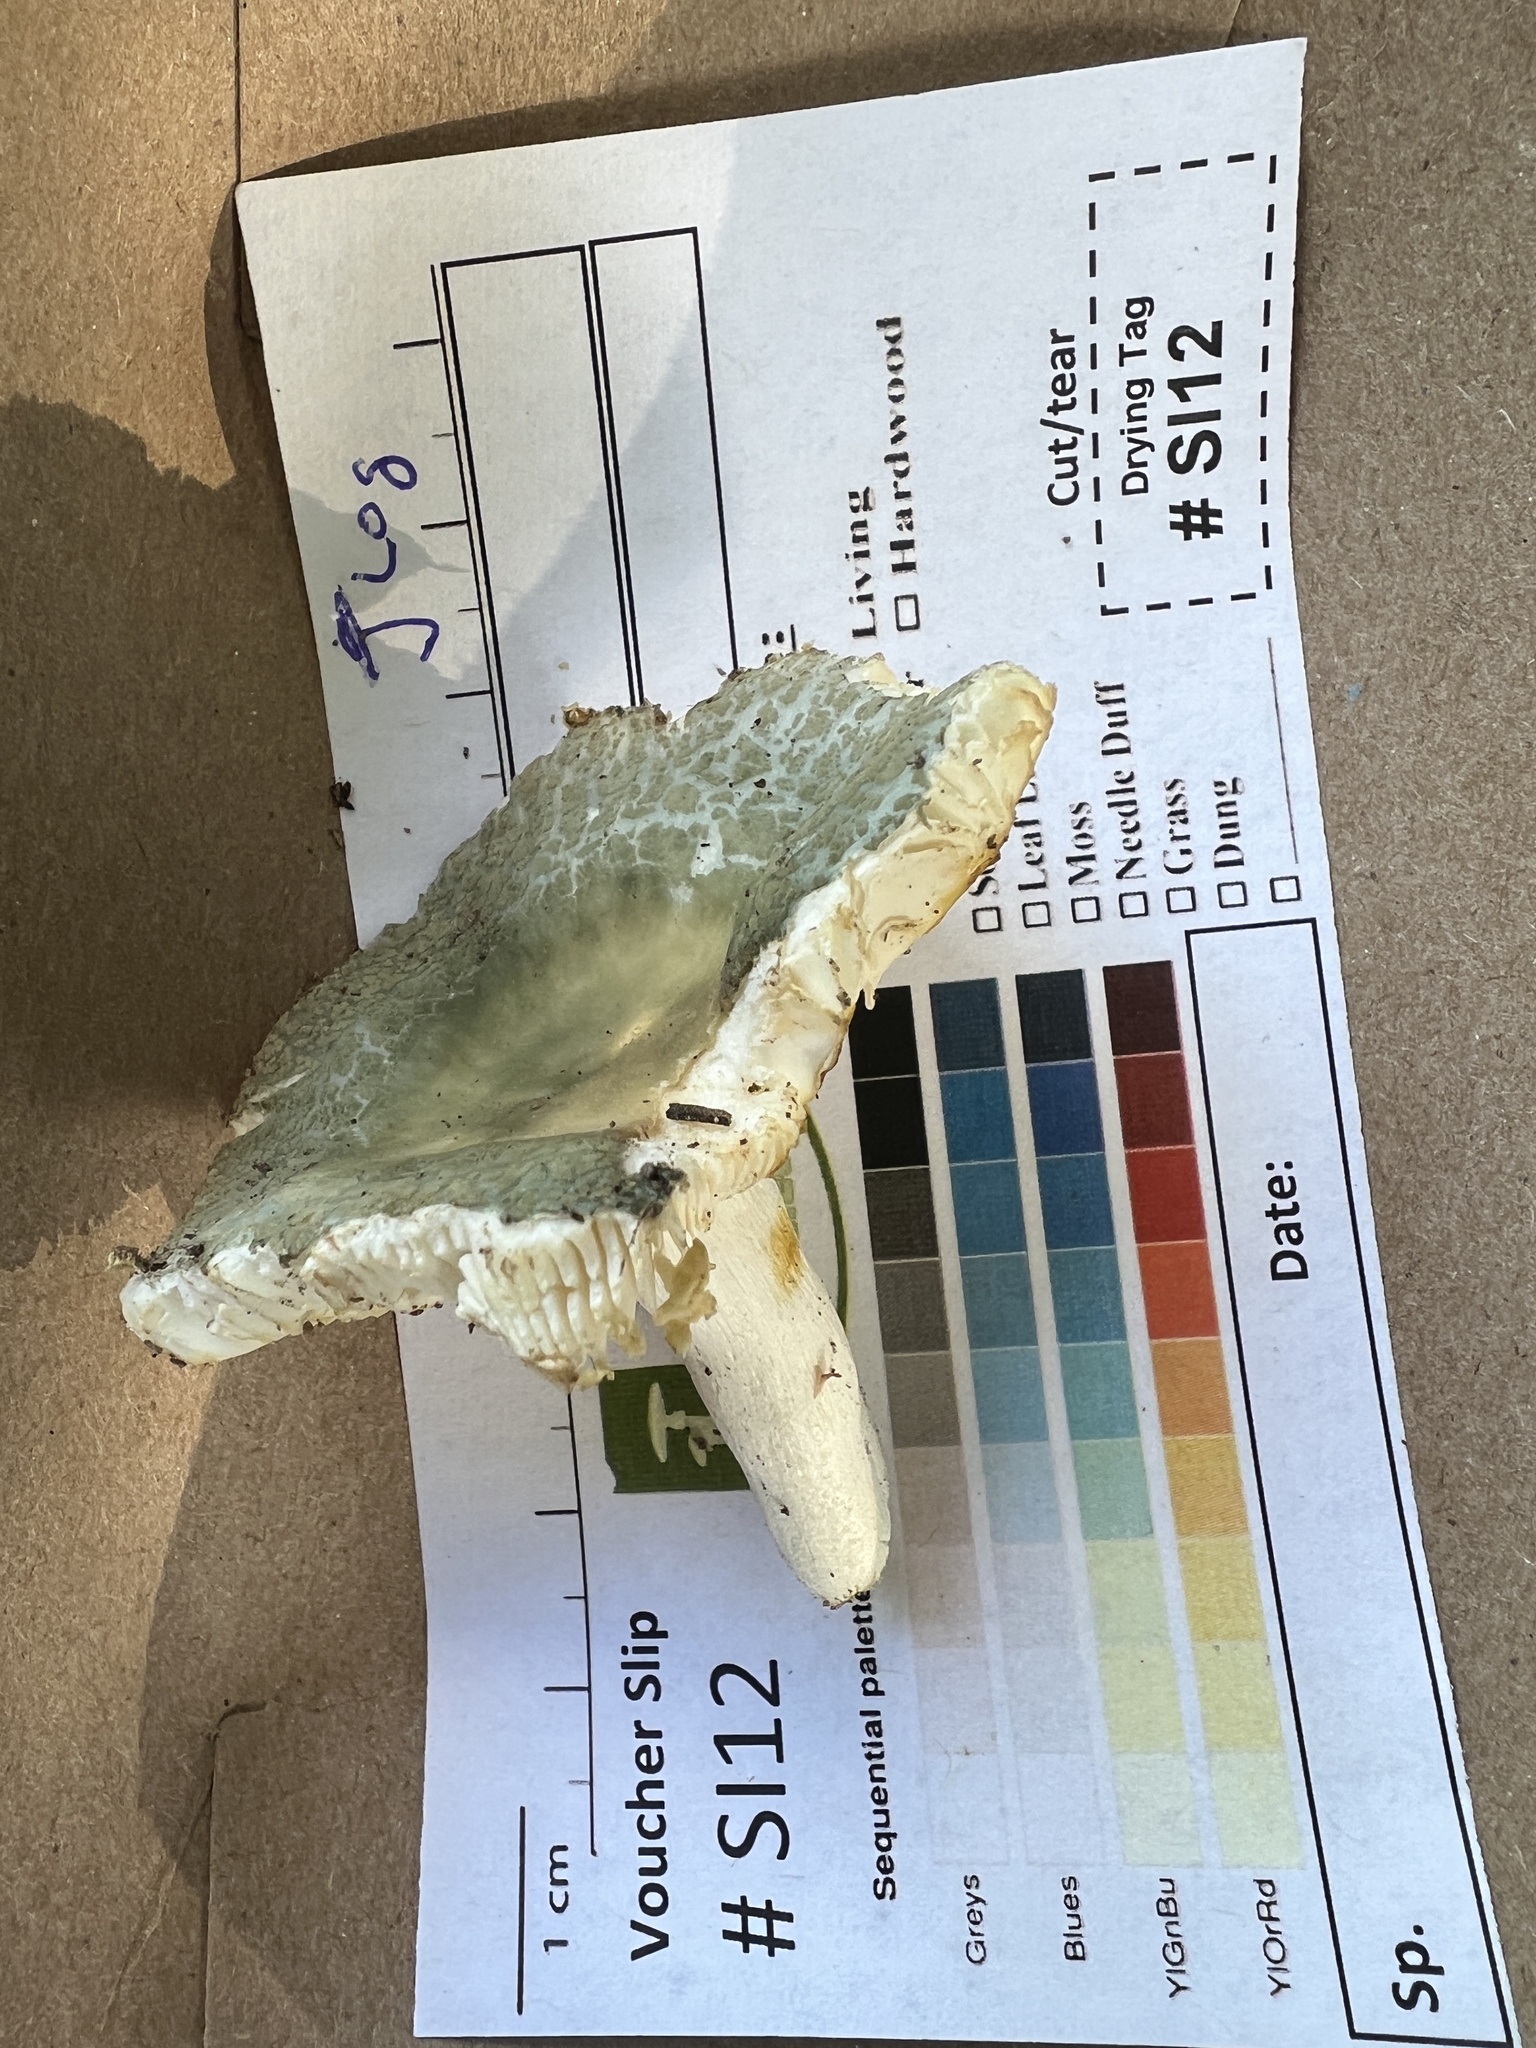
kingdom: Fungi
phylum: Basidiomycota
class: Agaricomycetes
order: Russulales
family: Russulaceae
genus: Russula
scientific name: Russula parvovirescens
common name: Blue-green cracking russula
